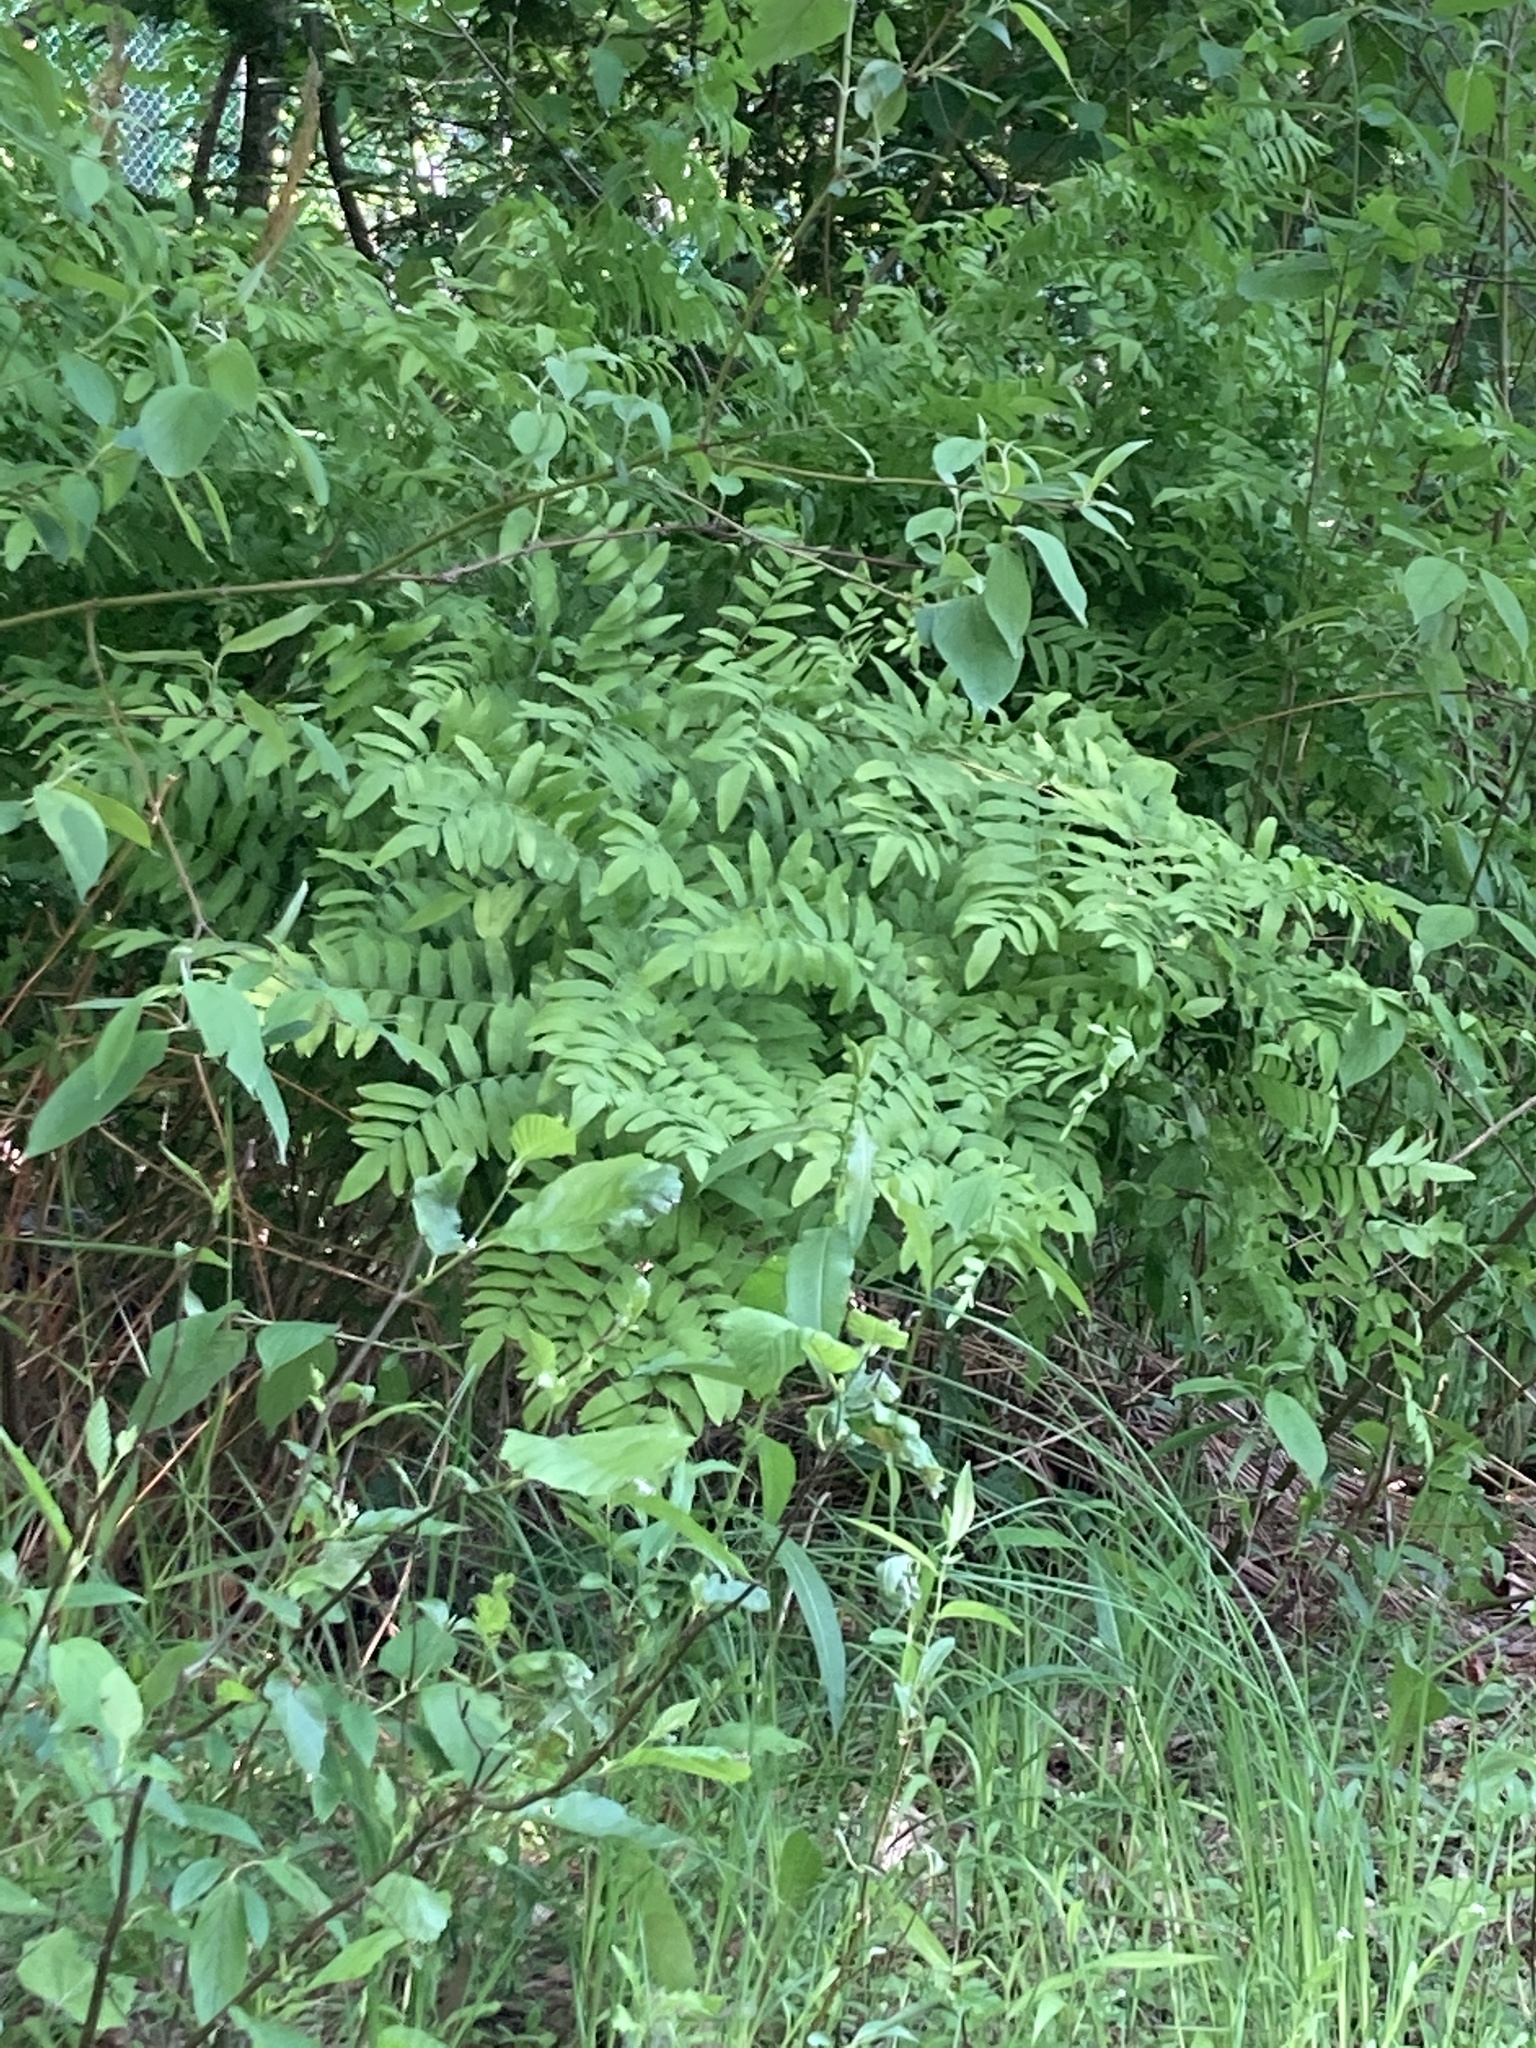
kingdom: Plantae
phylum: Tracheophyta
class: Polypodiopsida
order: Osmundales
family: Osmundaceae
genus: Osmunda
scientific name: Osmunda spectabilis
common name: American royal fern
